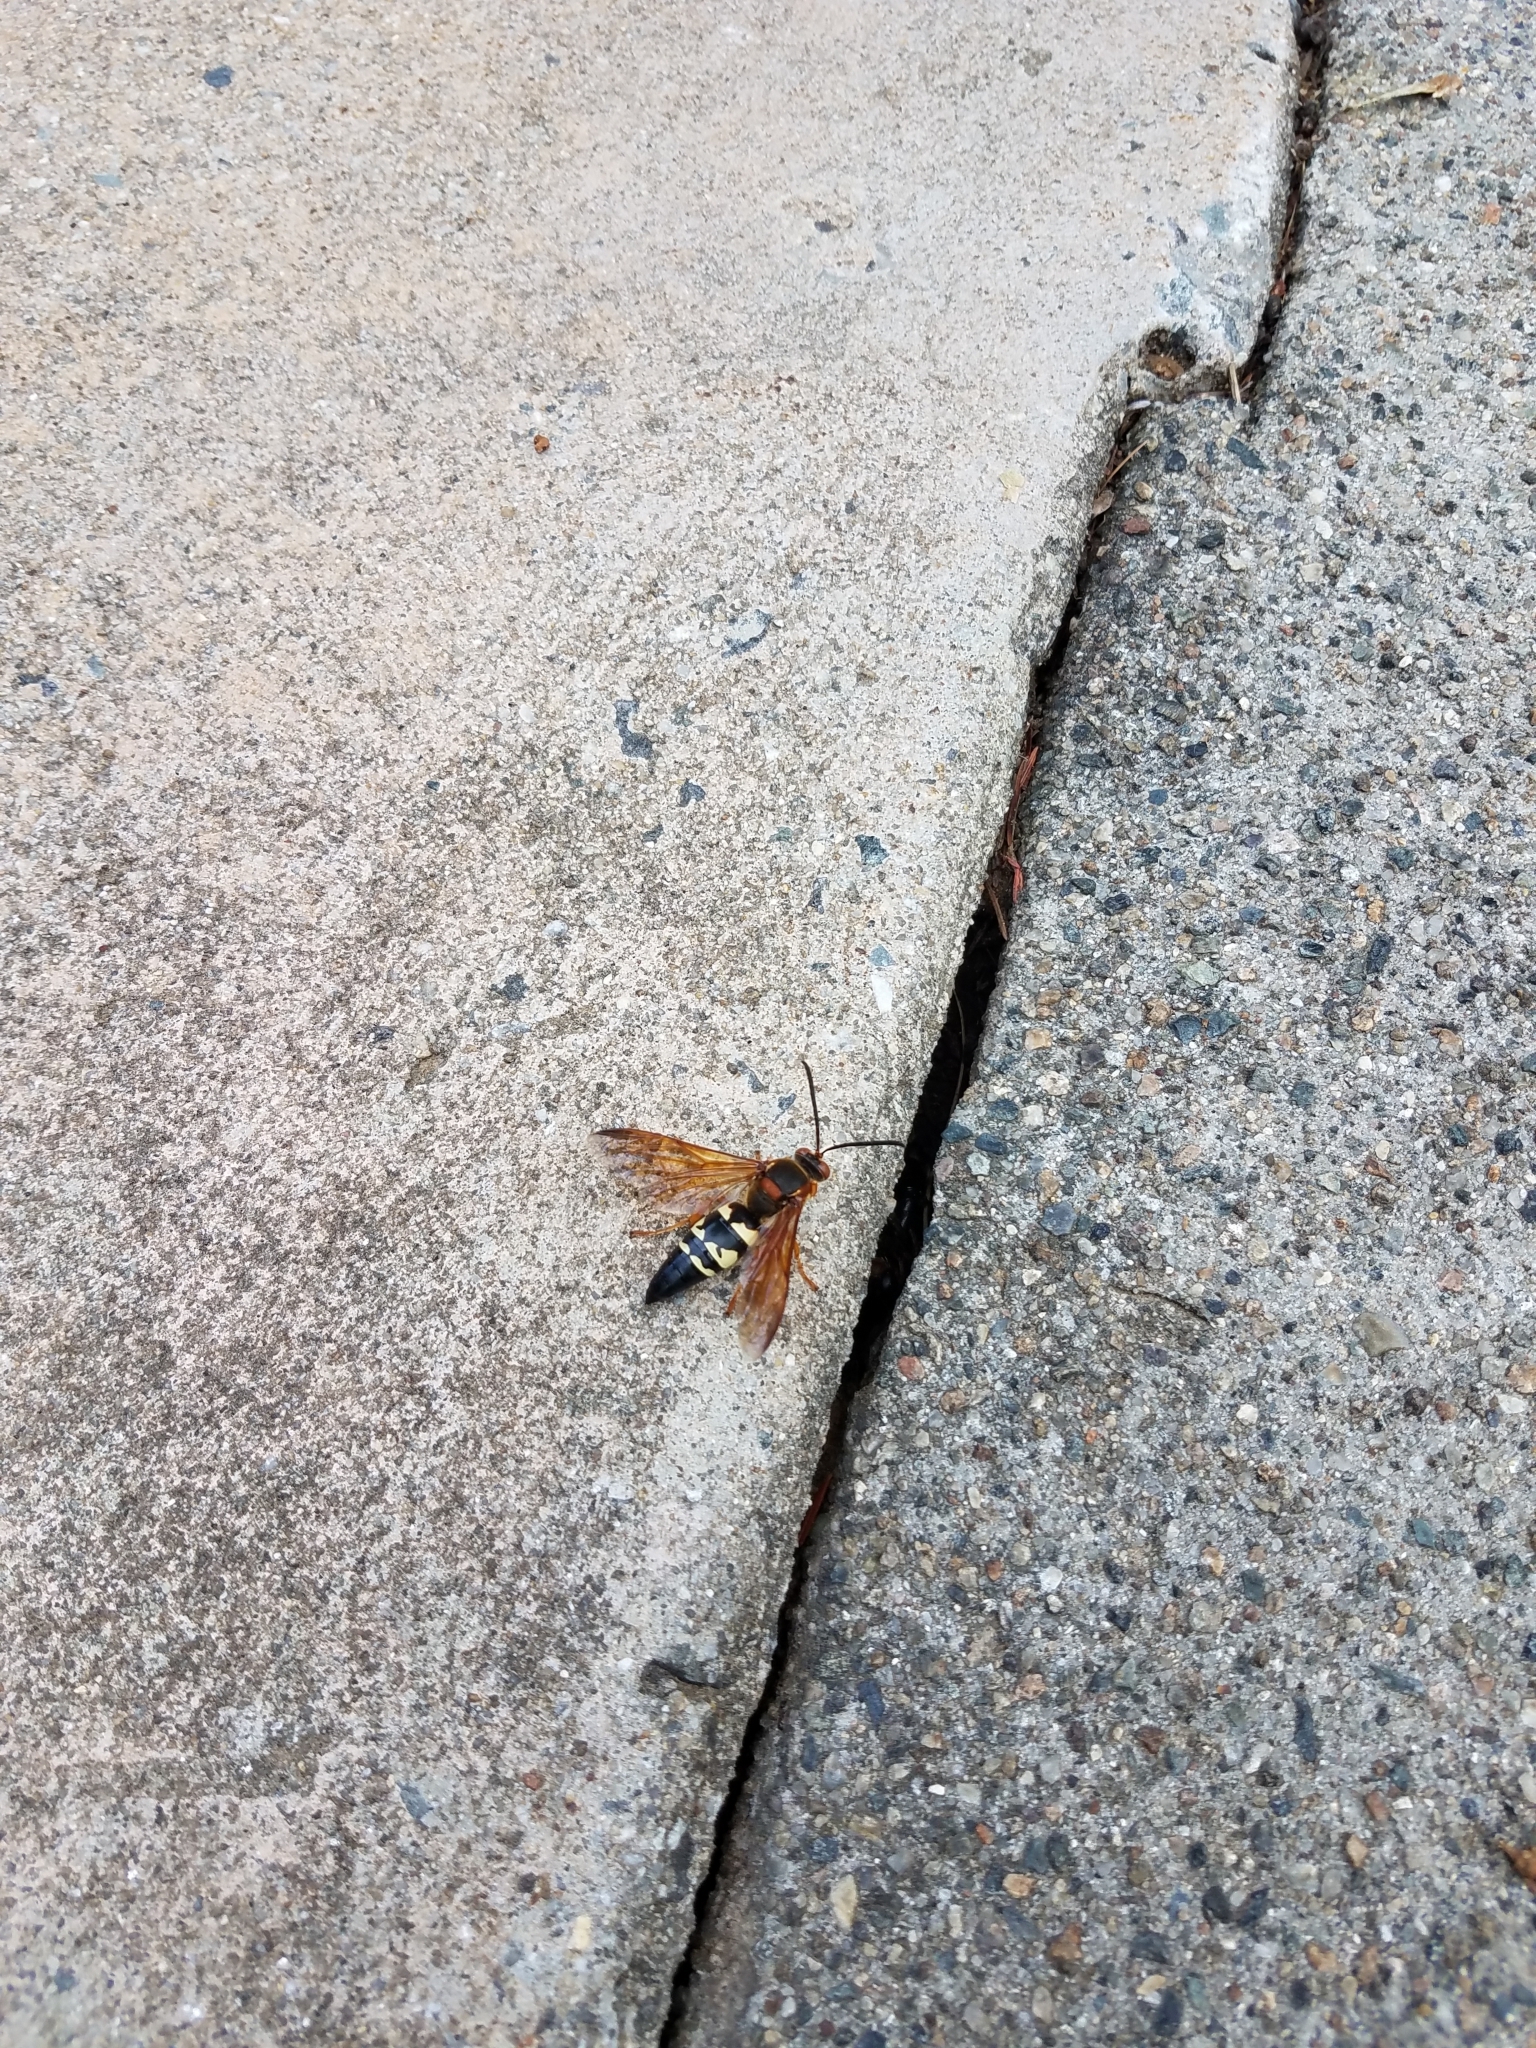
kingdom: Animalia
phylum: Arthropoda
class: Insecta
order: Hymenoptera
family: Crabronidae
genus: Sphecius
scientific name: Sphecius speciosus
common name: Cicada killer
